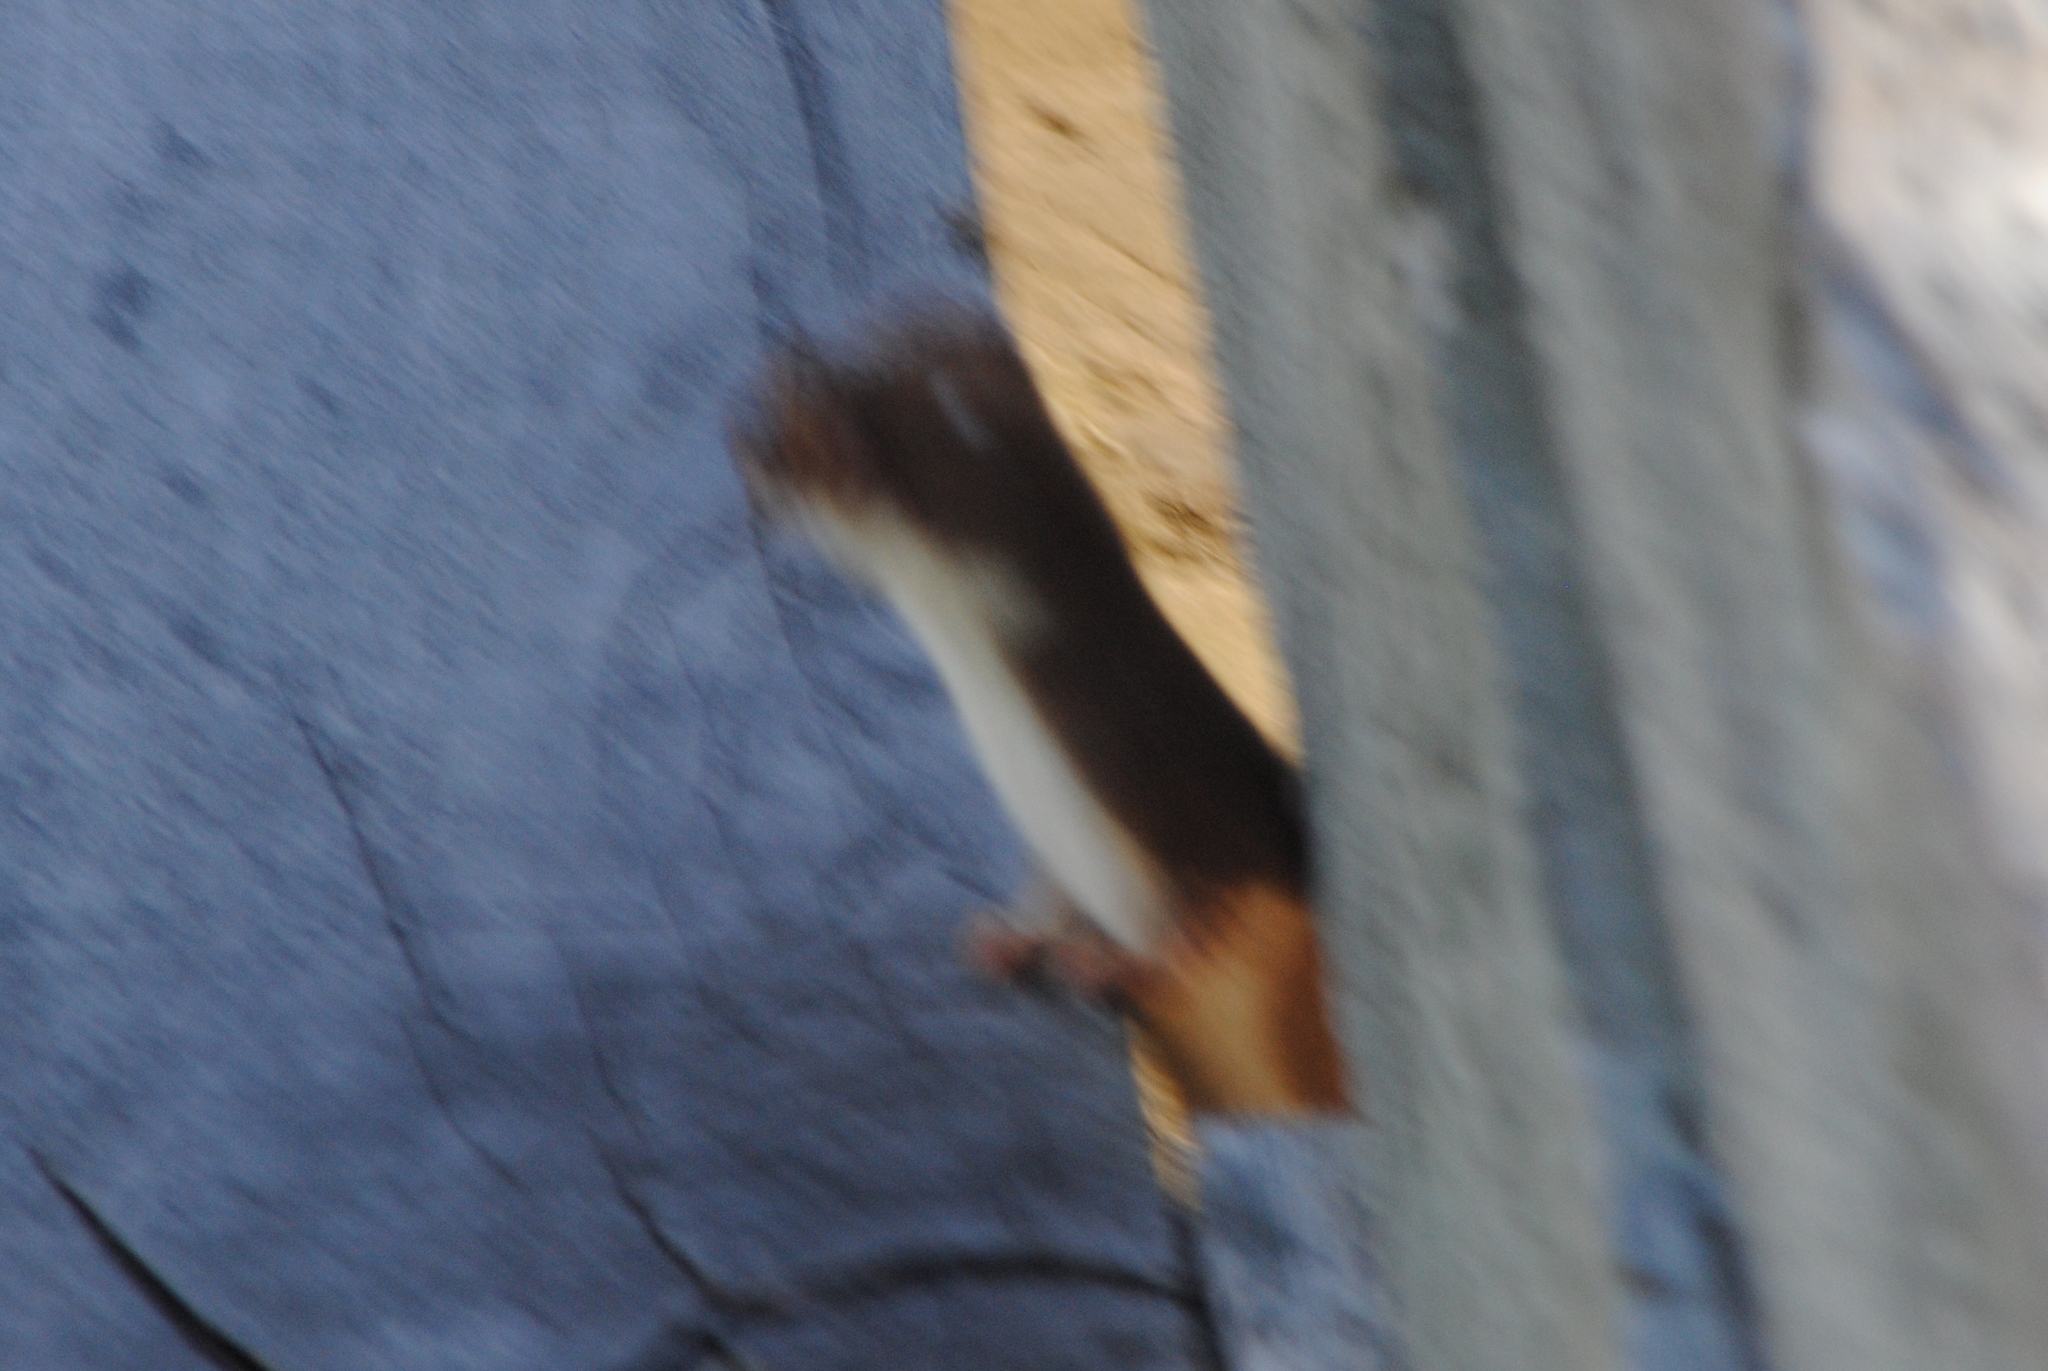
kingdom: Animalia
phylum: Chordata
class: Mammalia
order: Carnivora
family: Mustelidae
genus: Mustela
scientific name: Mustela erminea
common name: Stoat
